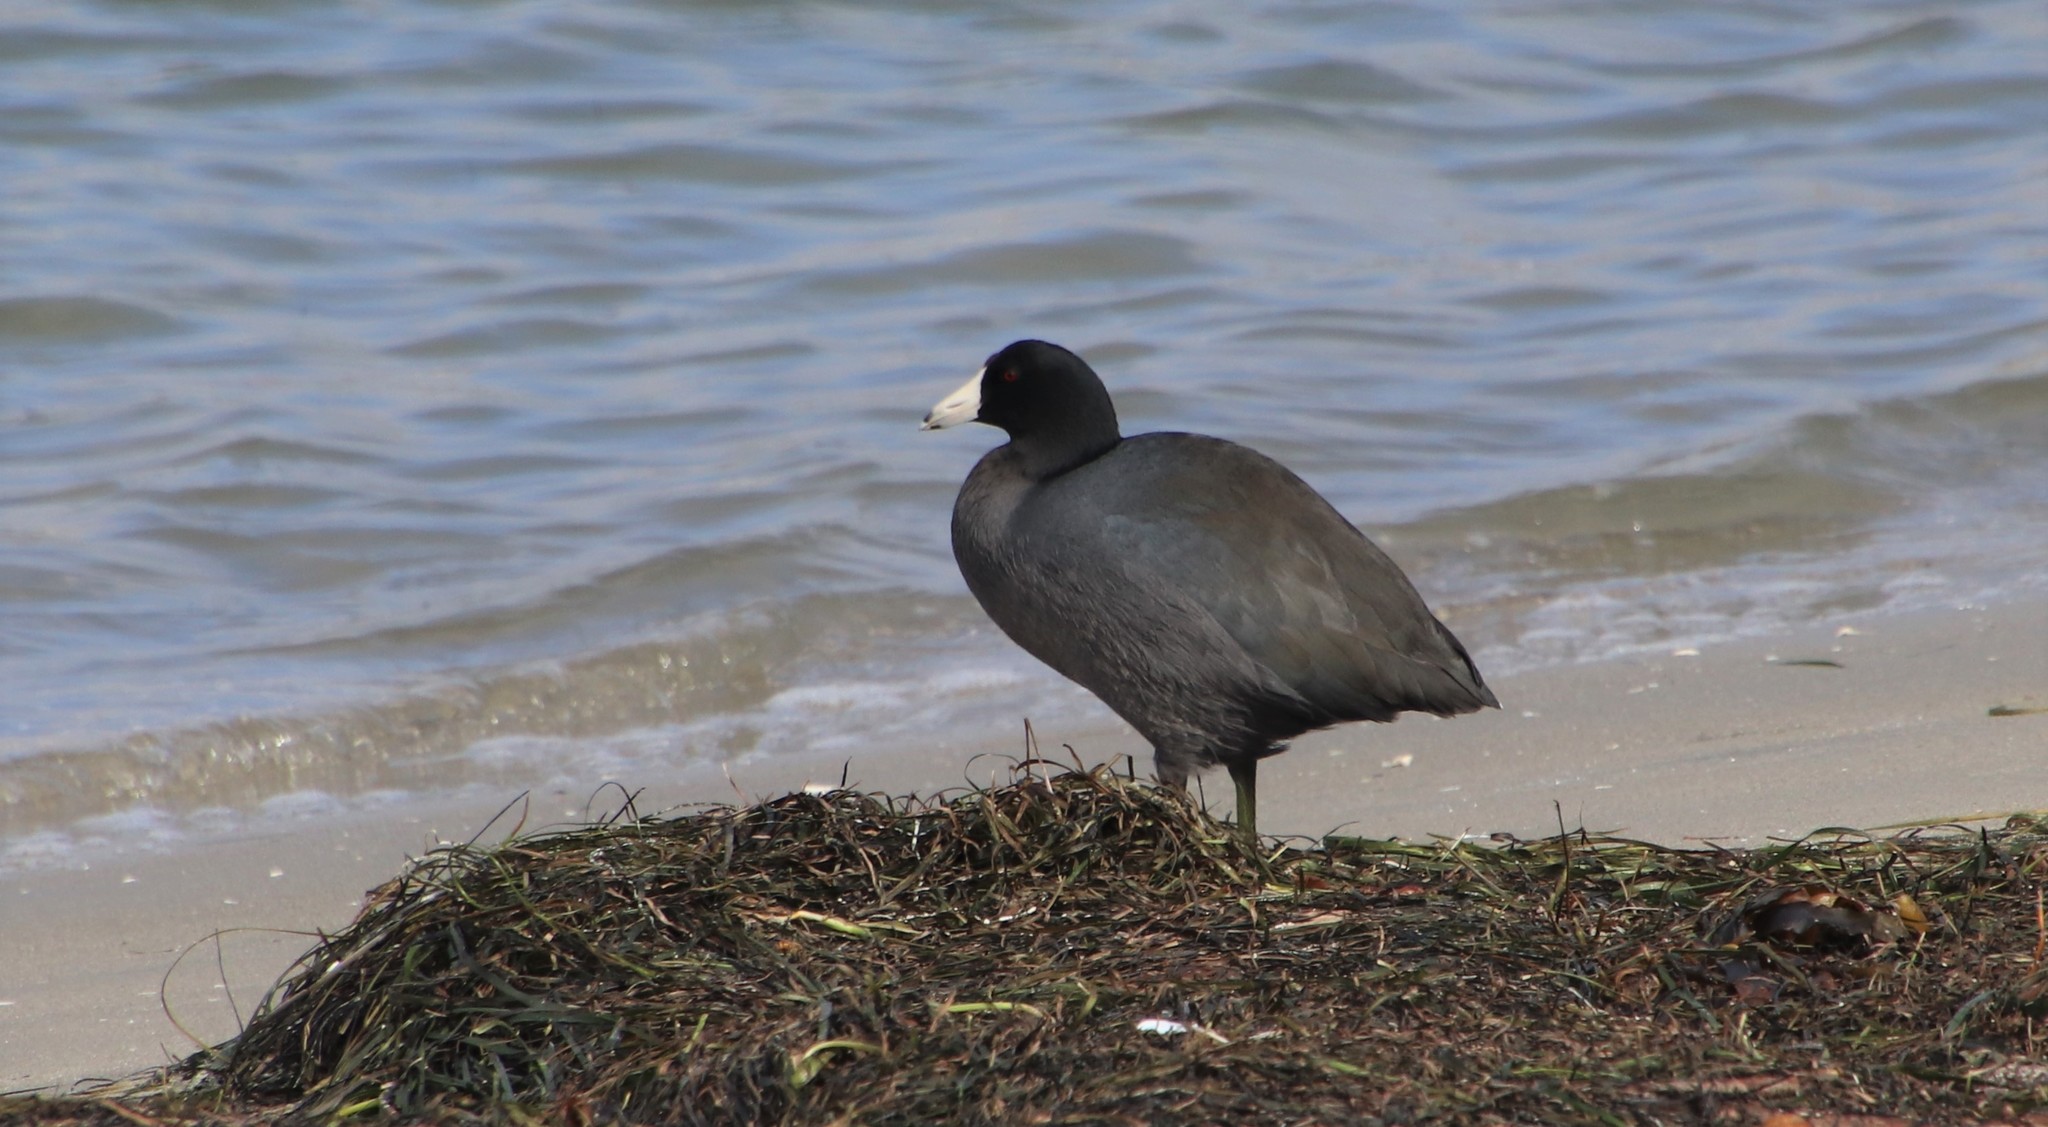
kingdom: Animalia
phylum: Chordata
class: Aves
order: Gruiformes
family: Rallidae
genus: Fulica
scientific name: Fulica americana
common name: American coot
